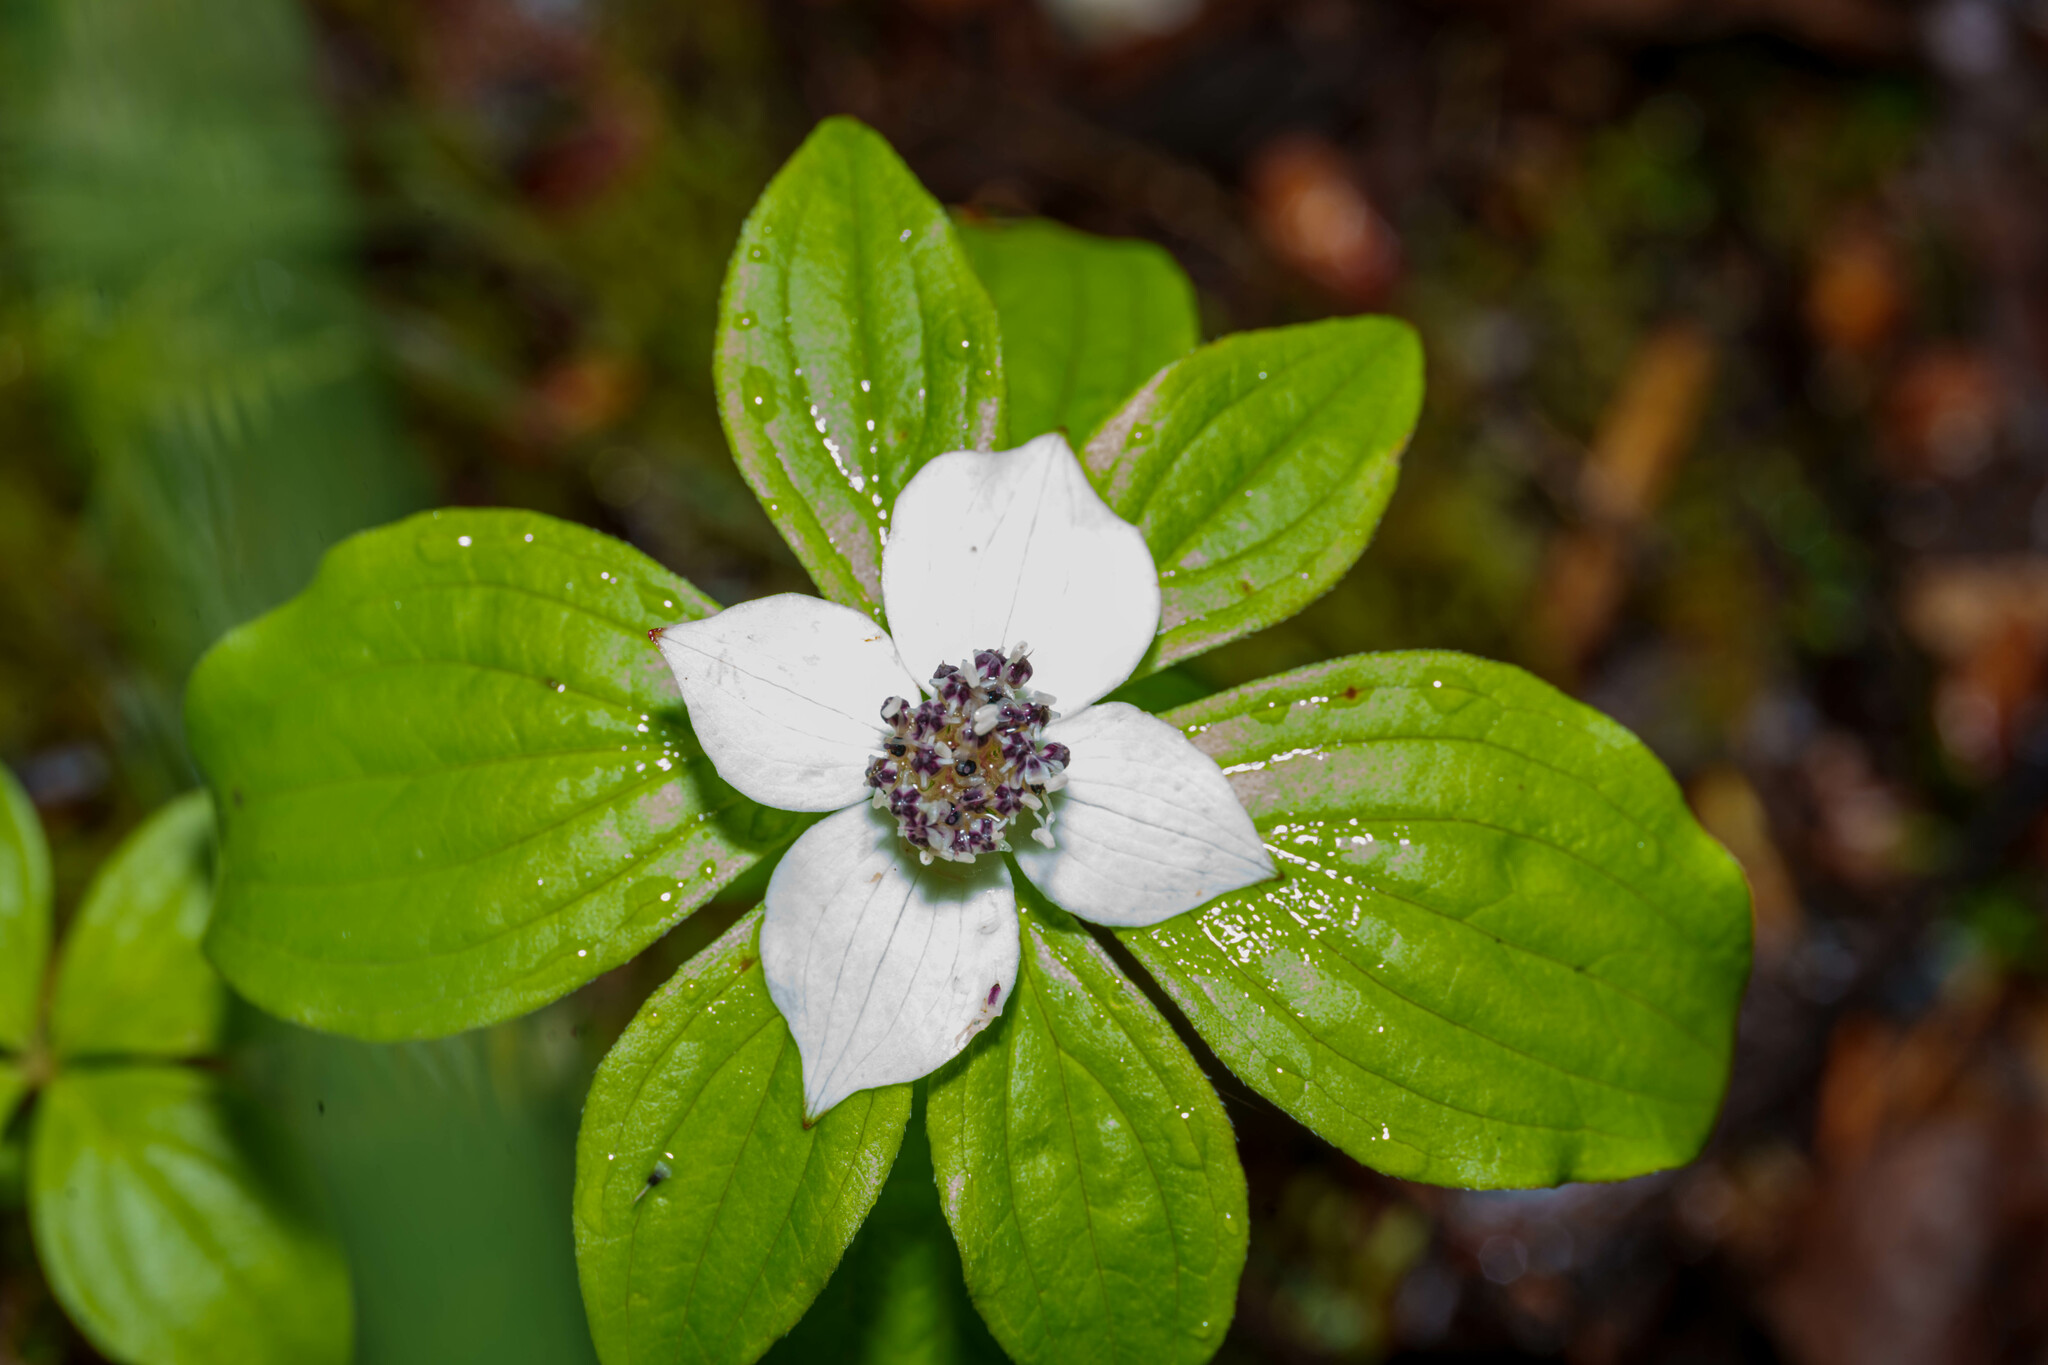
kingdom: Plantae
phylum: Tracheophyta
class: Magnoliopsida
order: Cornales
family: Cornaceae
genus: Cornus
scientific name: Cornus unalaschkensis
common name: Alaska bunchberry
